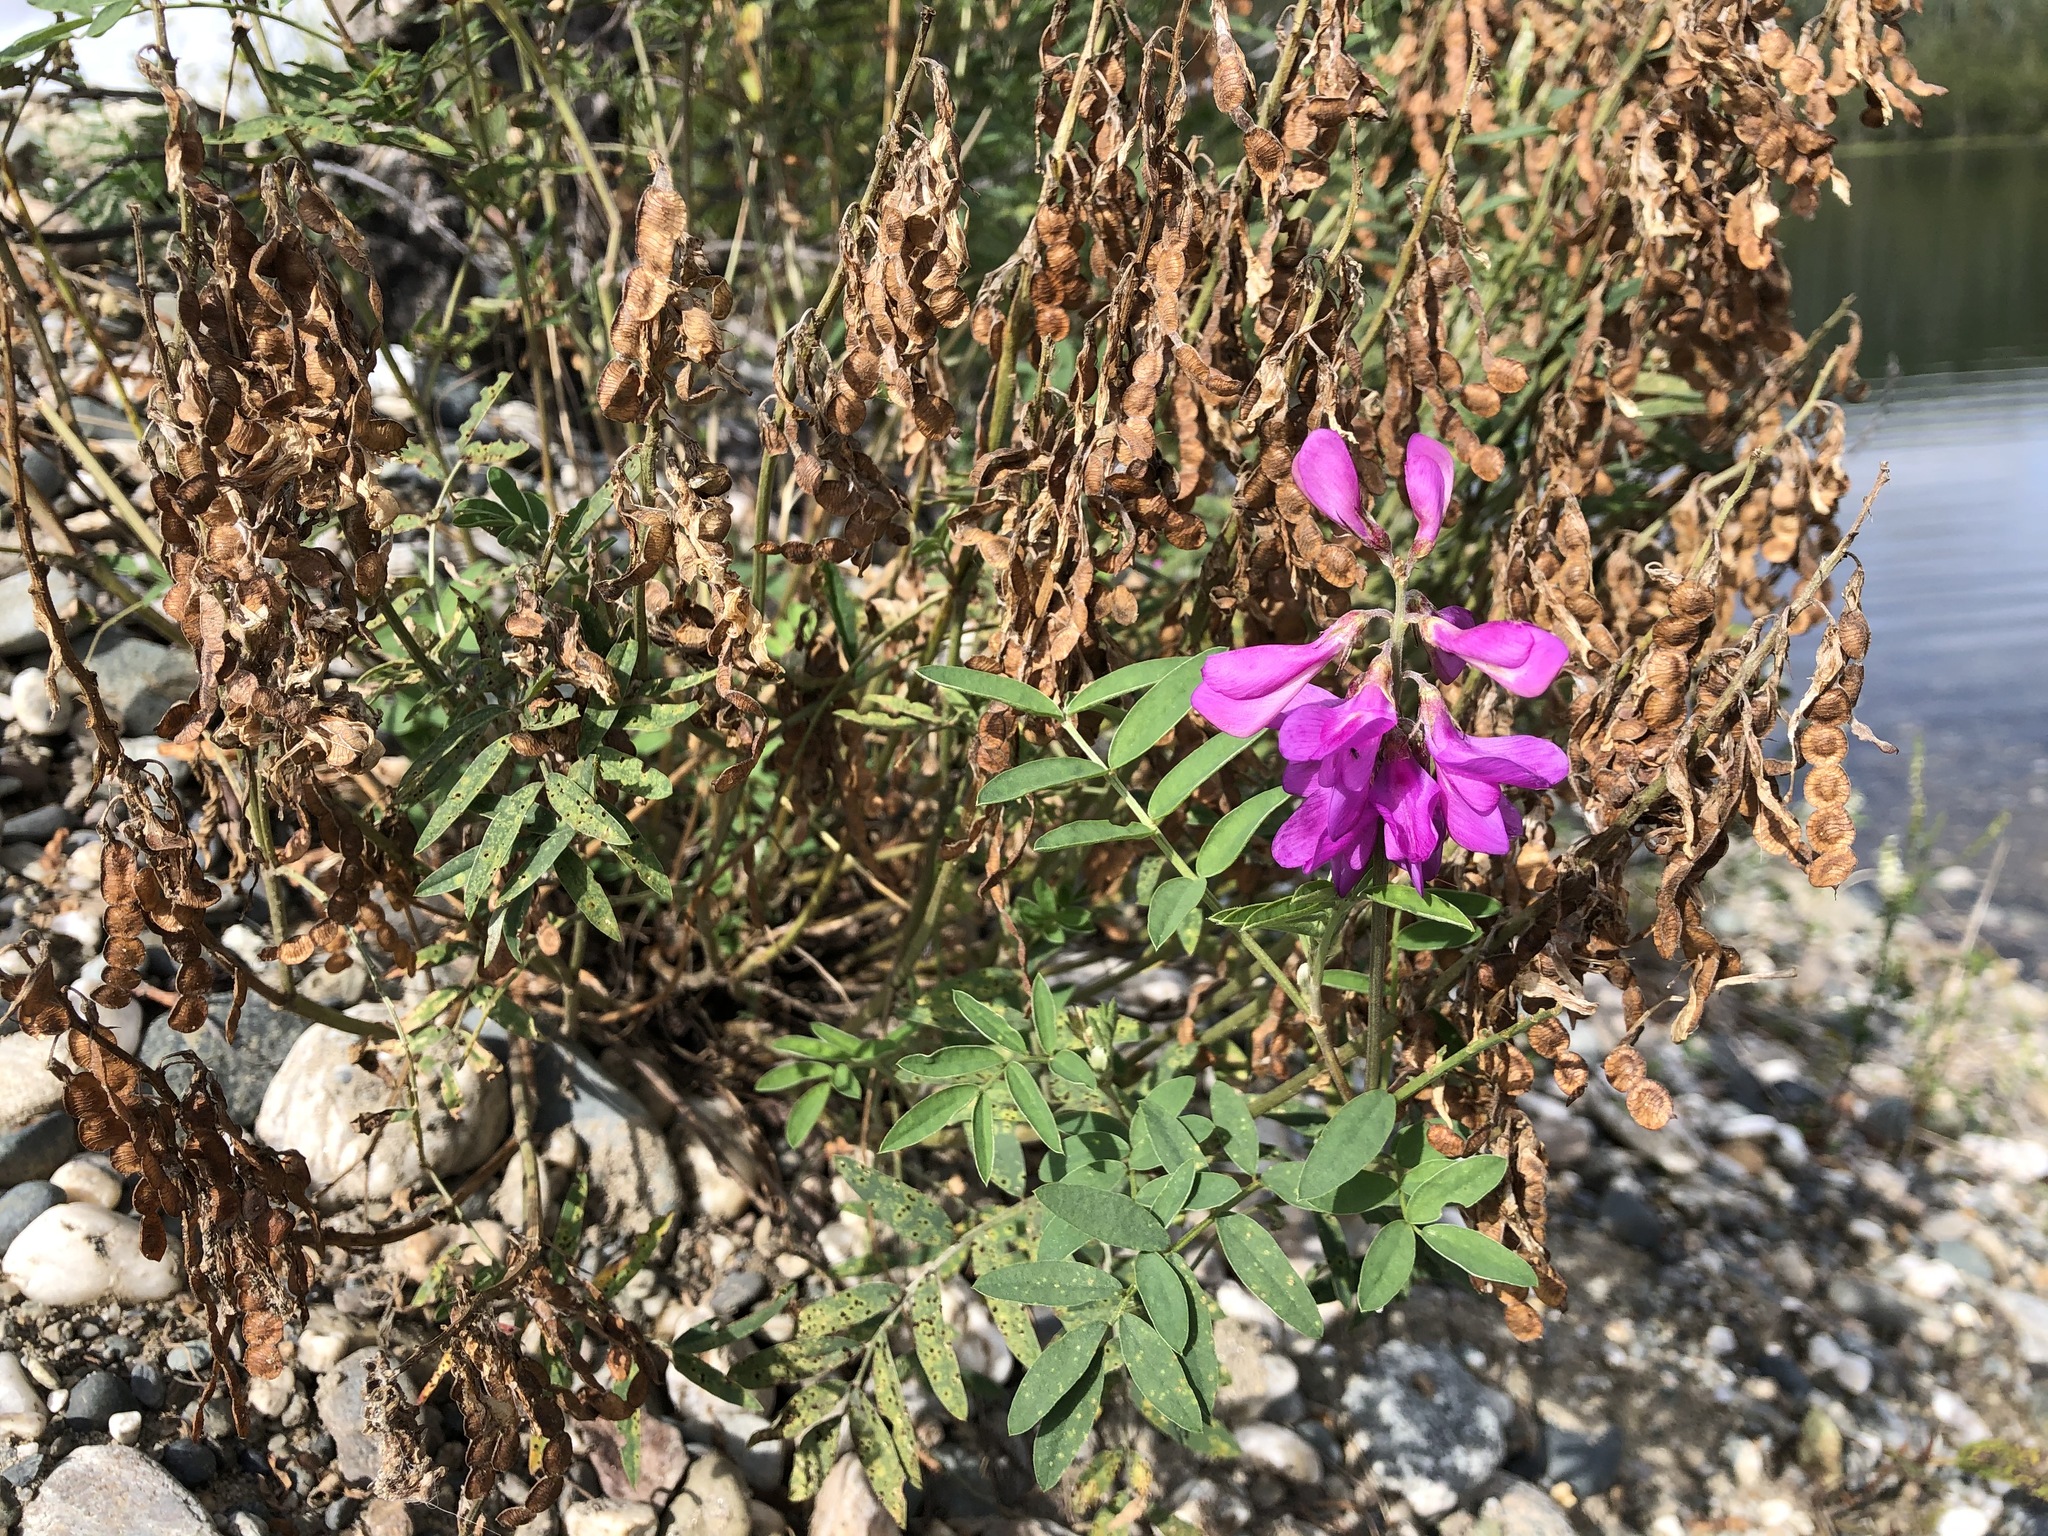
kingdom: Plantae
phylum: Tracheophyta
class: Magnoliopsida
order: Fabales
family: Fabaceae
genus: Hedysarum
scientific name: Hedysarum boreale
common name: Northern sweet-vetch
